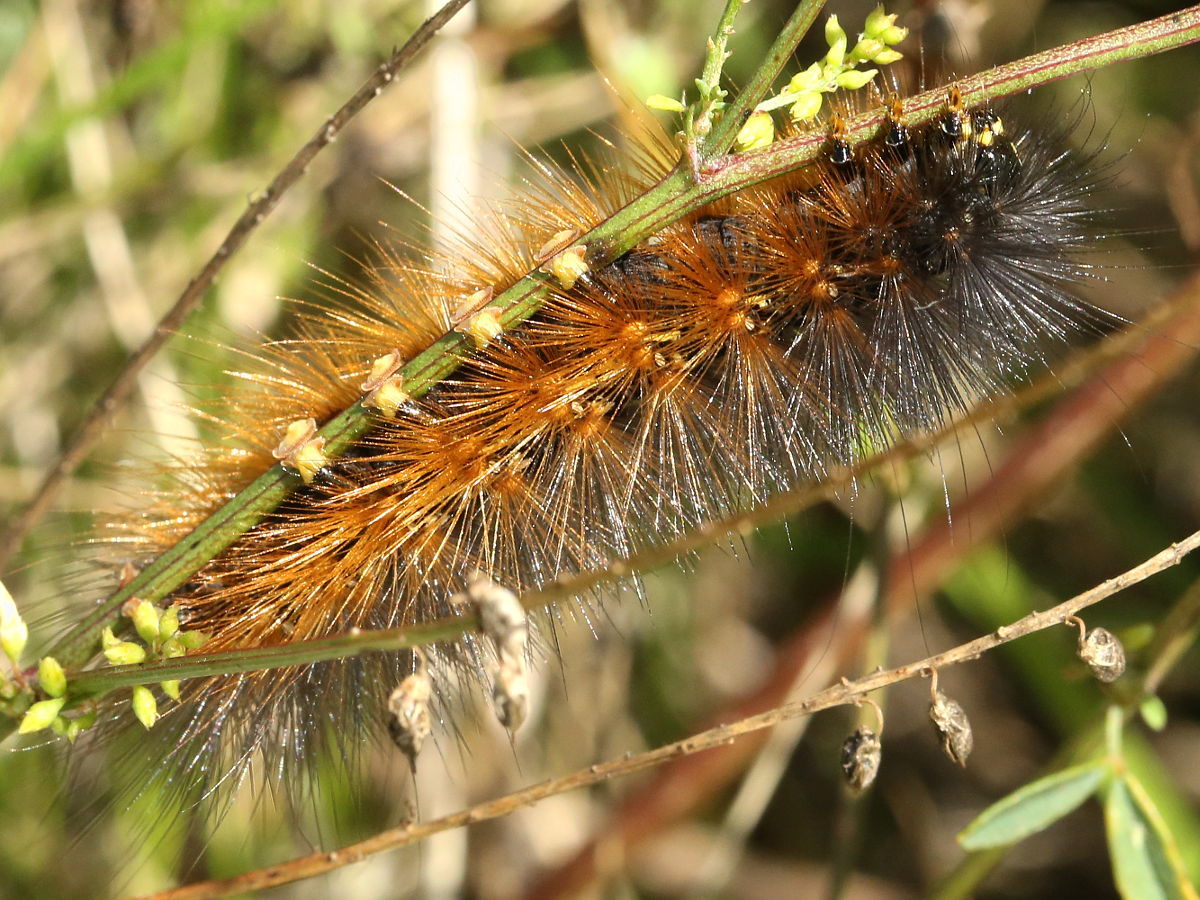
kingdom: Animalia
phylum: Arthropoda
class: Insecta
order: Lepidoptera
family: Erebidae
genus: Estigmene
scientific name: Estigmene acrea
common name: Salt marsh moth
